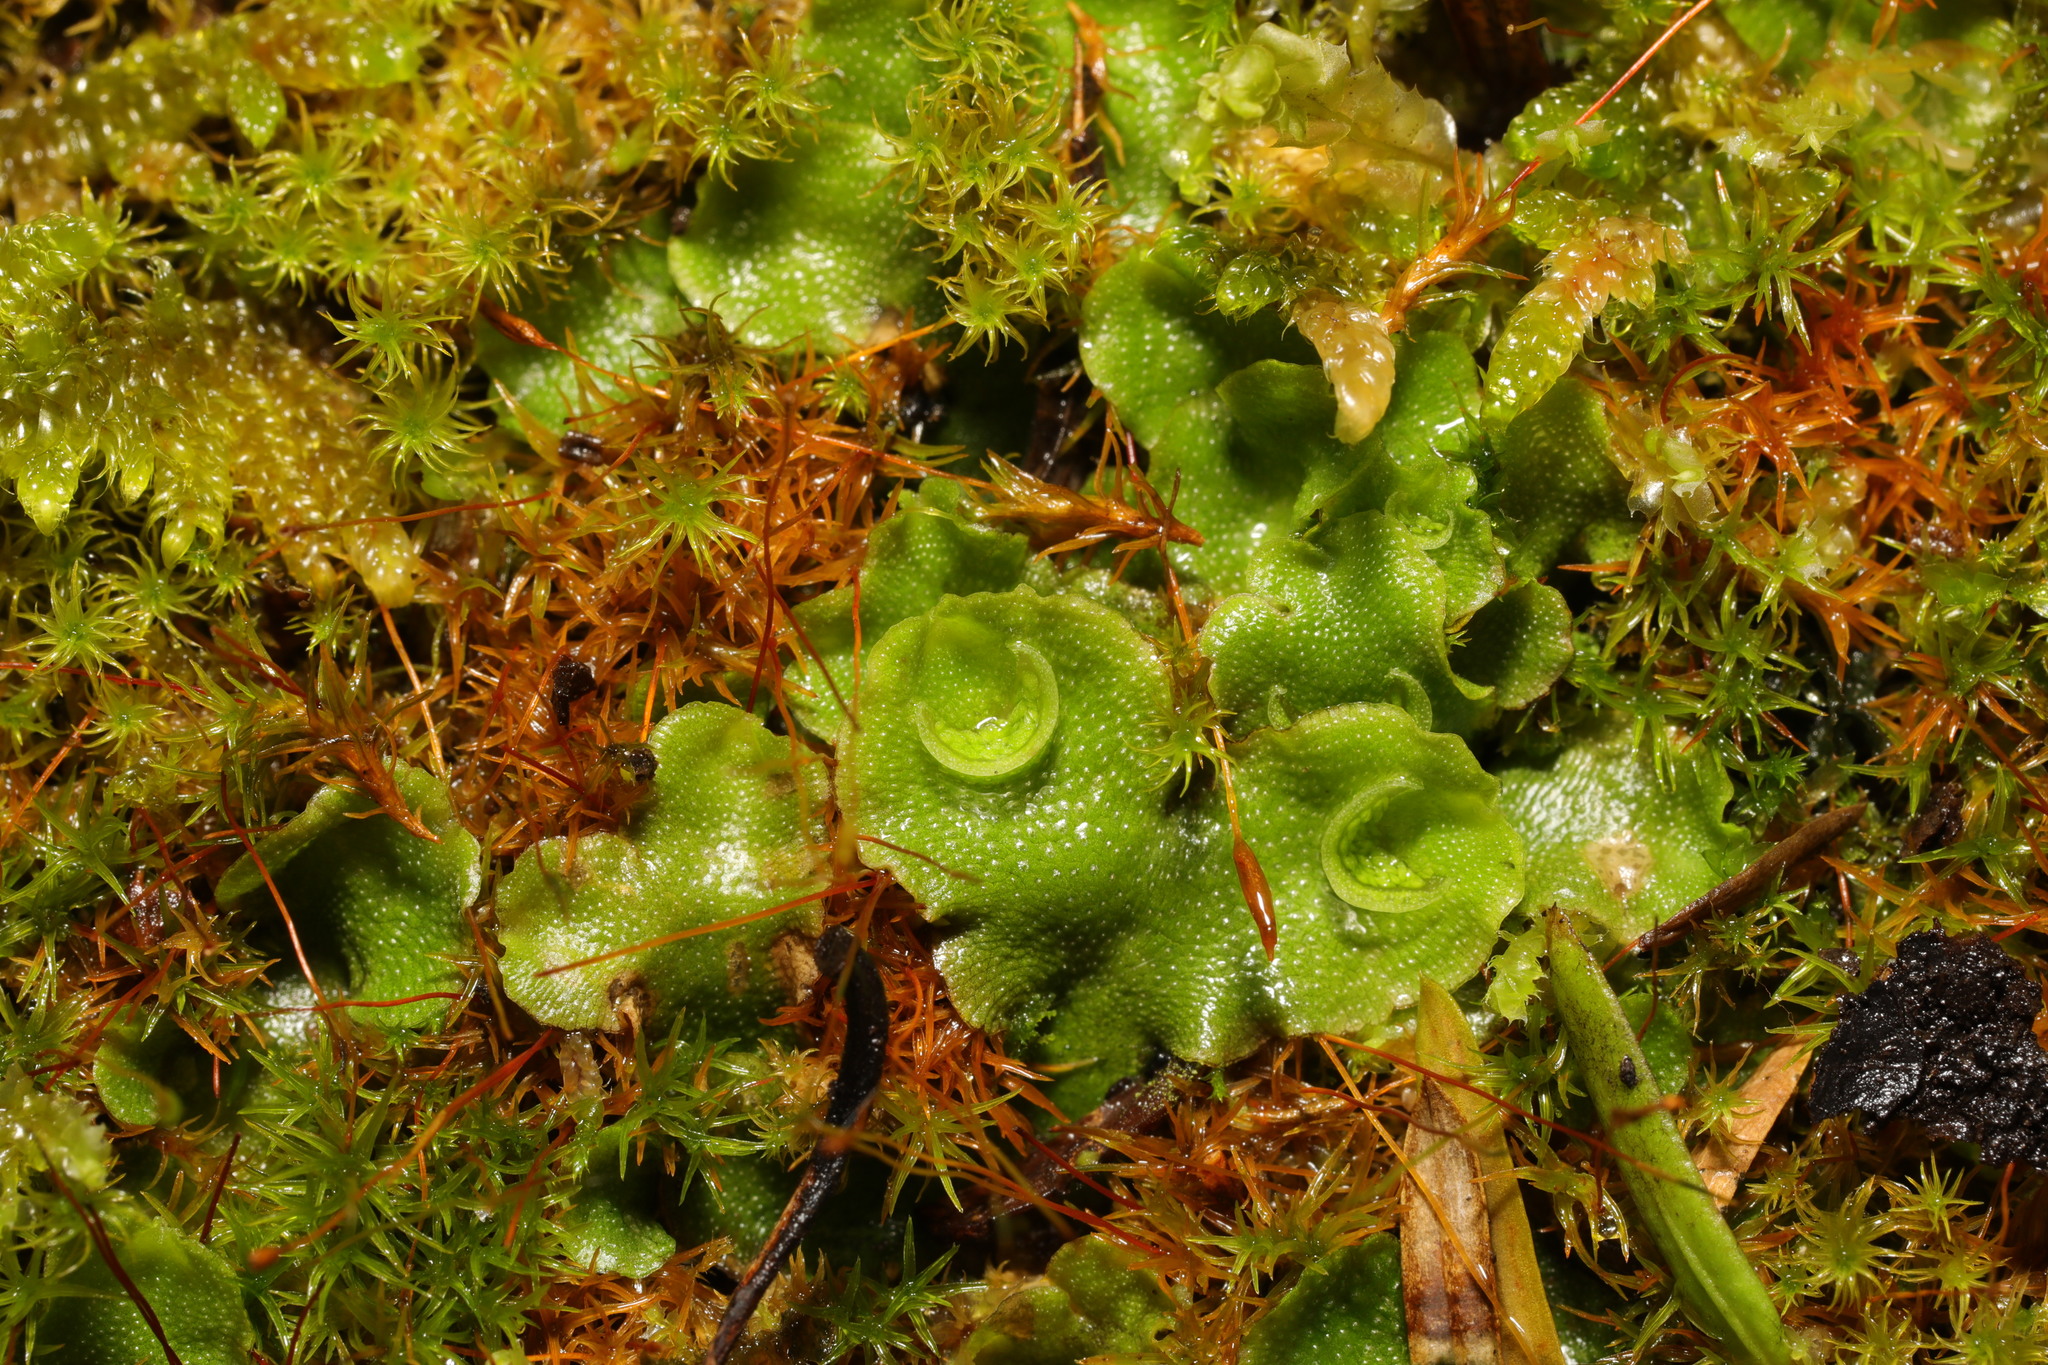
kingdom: Plantae
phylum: Marchantiophyta
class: Marchantiopsida
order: Lunulariales
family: Lunulariaceae
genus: Lunularia
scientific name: Lunularia cruciata
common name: Crescent-cup liverwort
